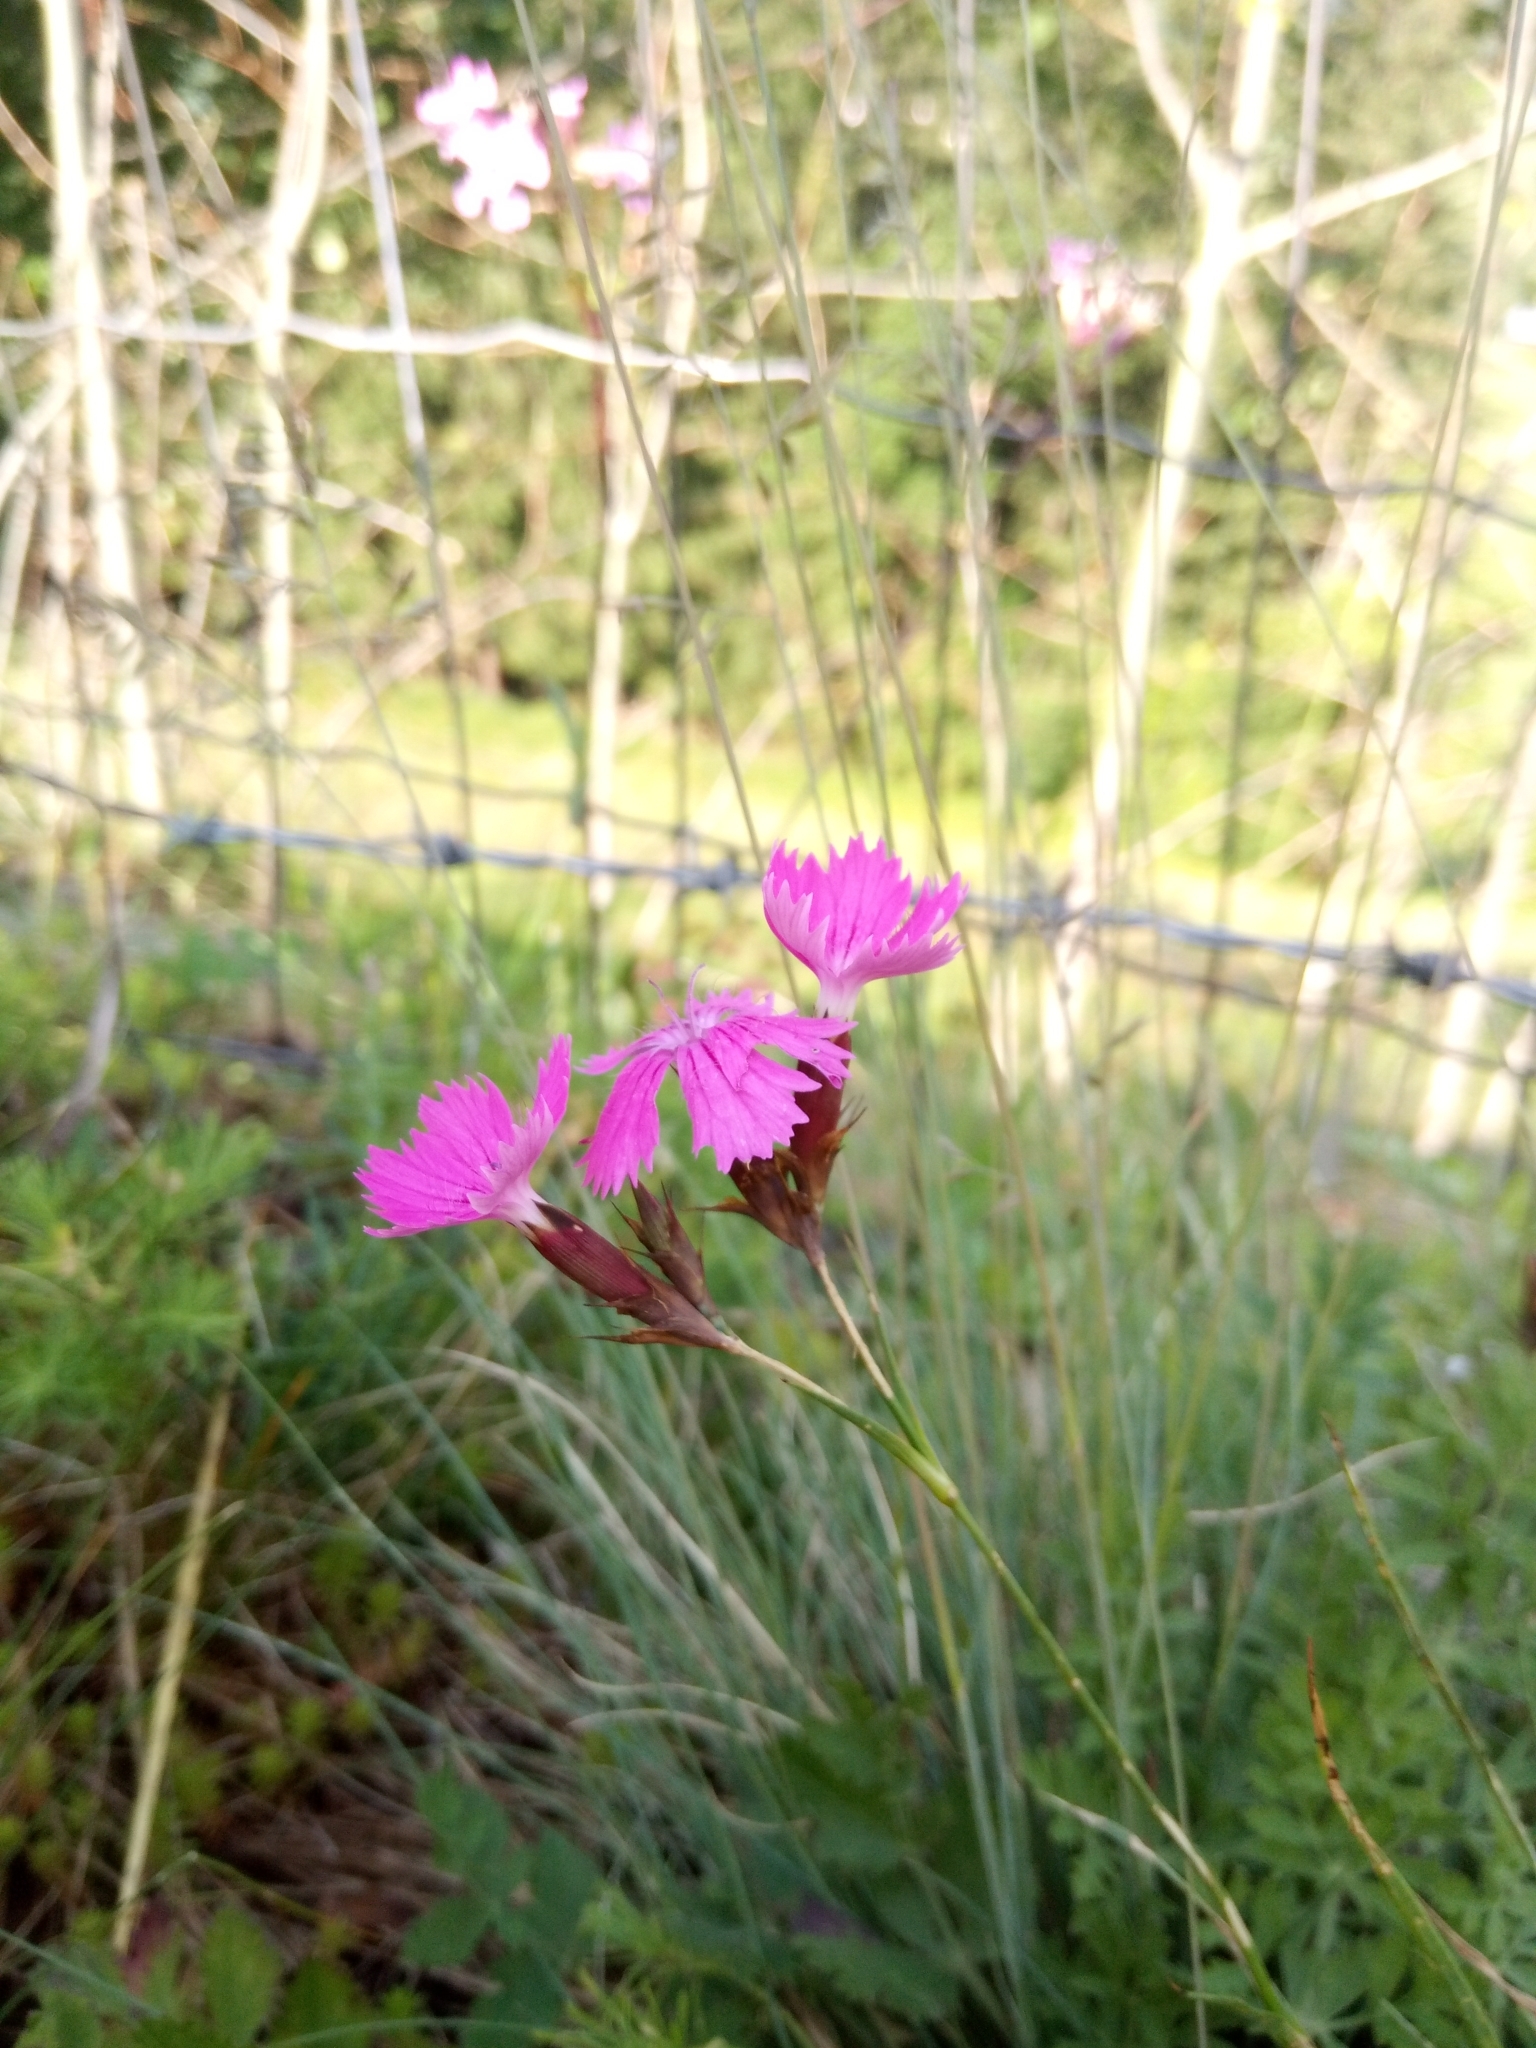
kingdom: Plantae
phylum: Tracheophyta
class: Magnoliopsida
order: Caryophyllales
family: Caryophyllaceae
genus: Dianthus
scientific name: Dianthus carthusianorum
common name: Carthusian pink
